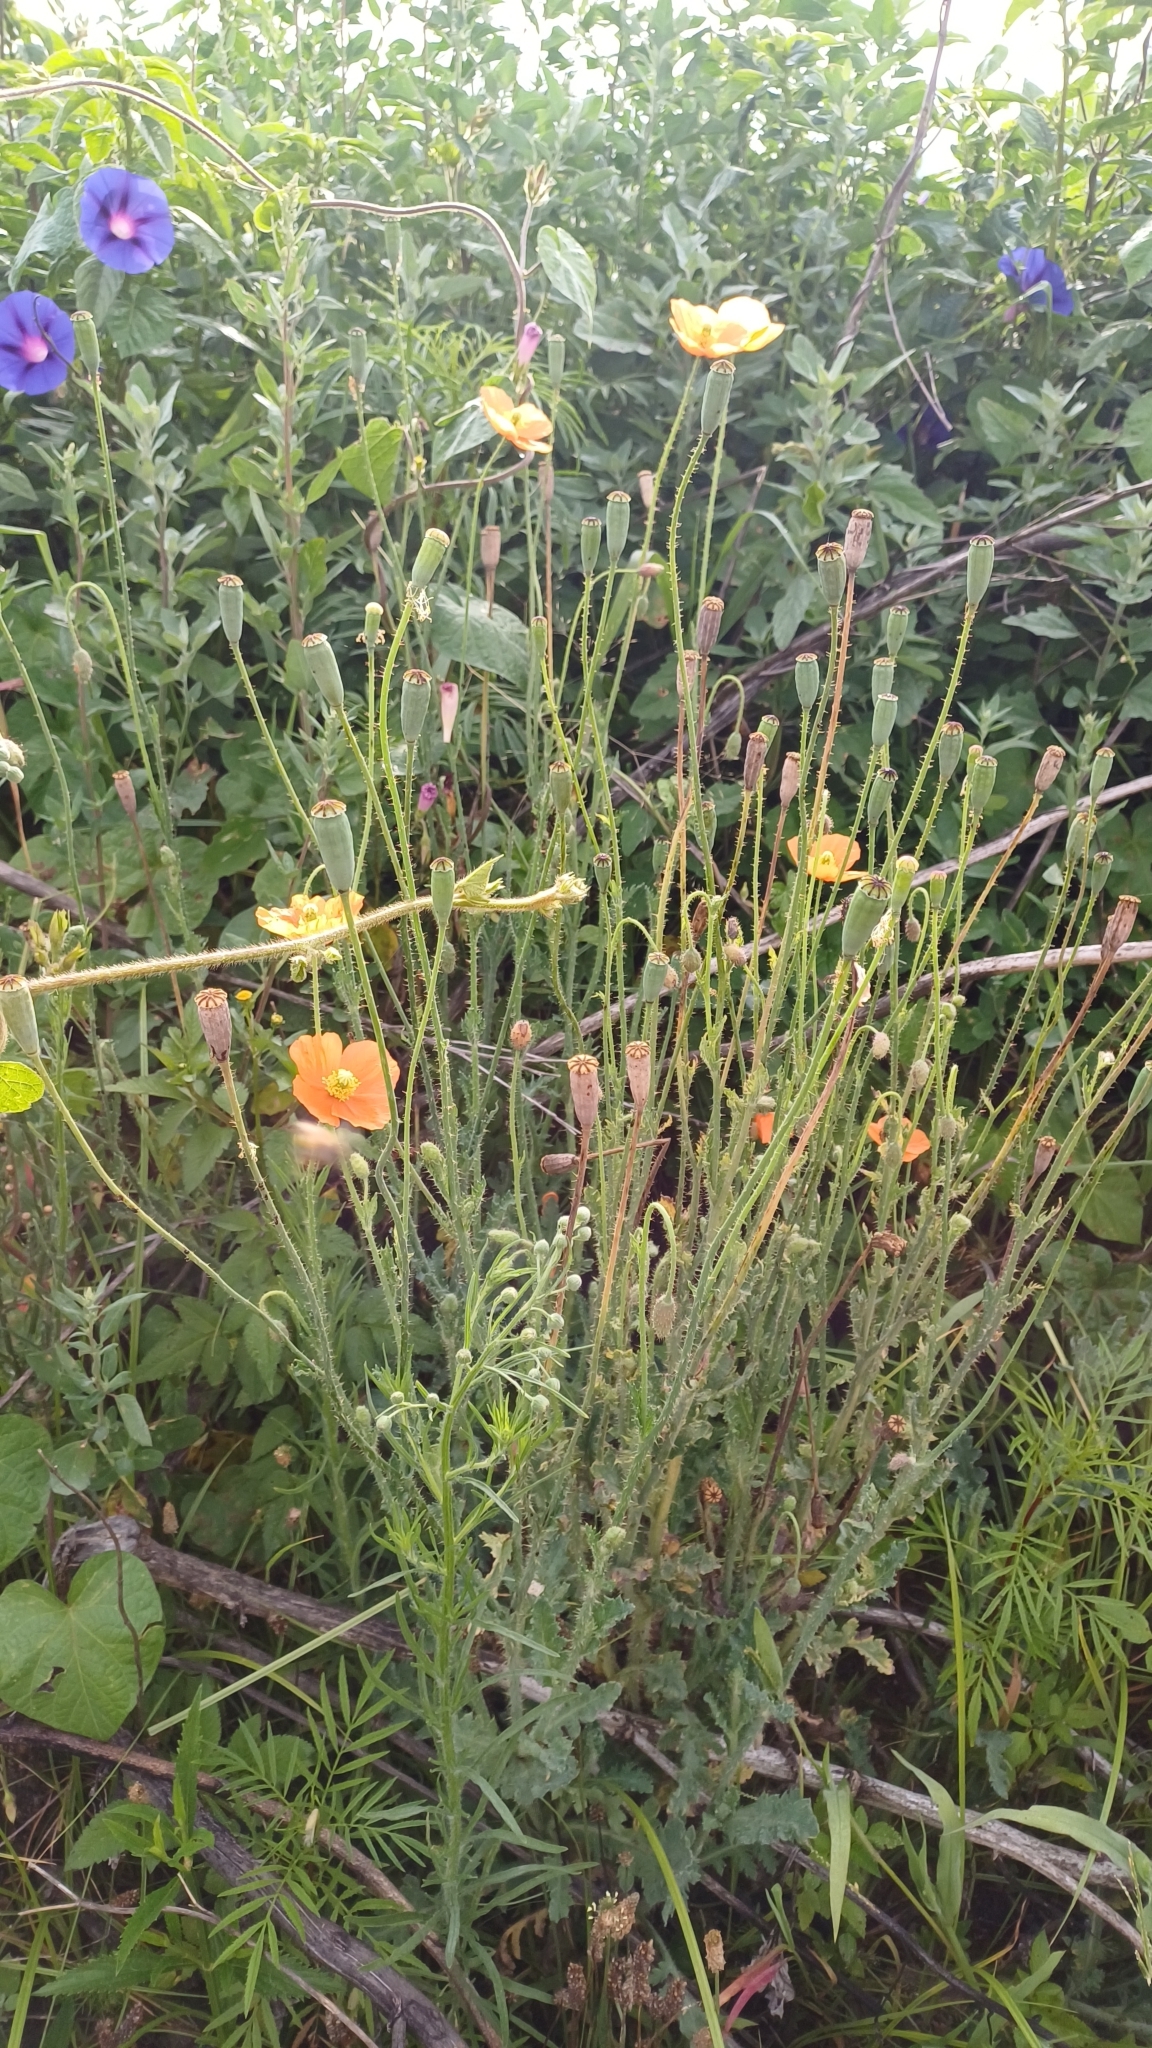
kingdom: Plantae
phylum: Tracheophyta
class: Magnoliopsida
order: Ranunculales
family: Papaveraceae
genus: Papaver
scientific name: Papaver aculeatum
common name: Bristle poppy
